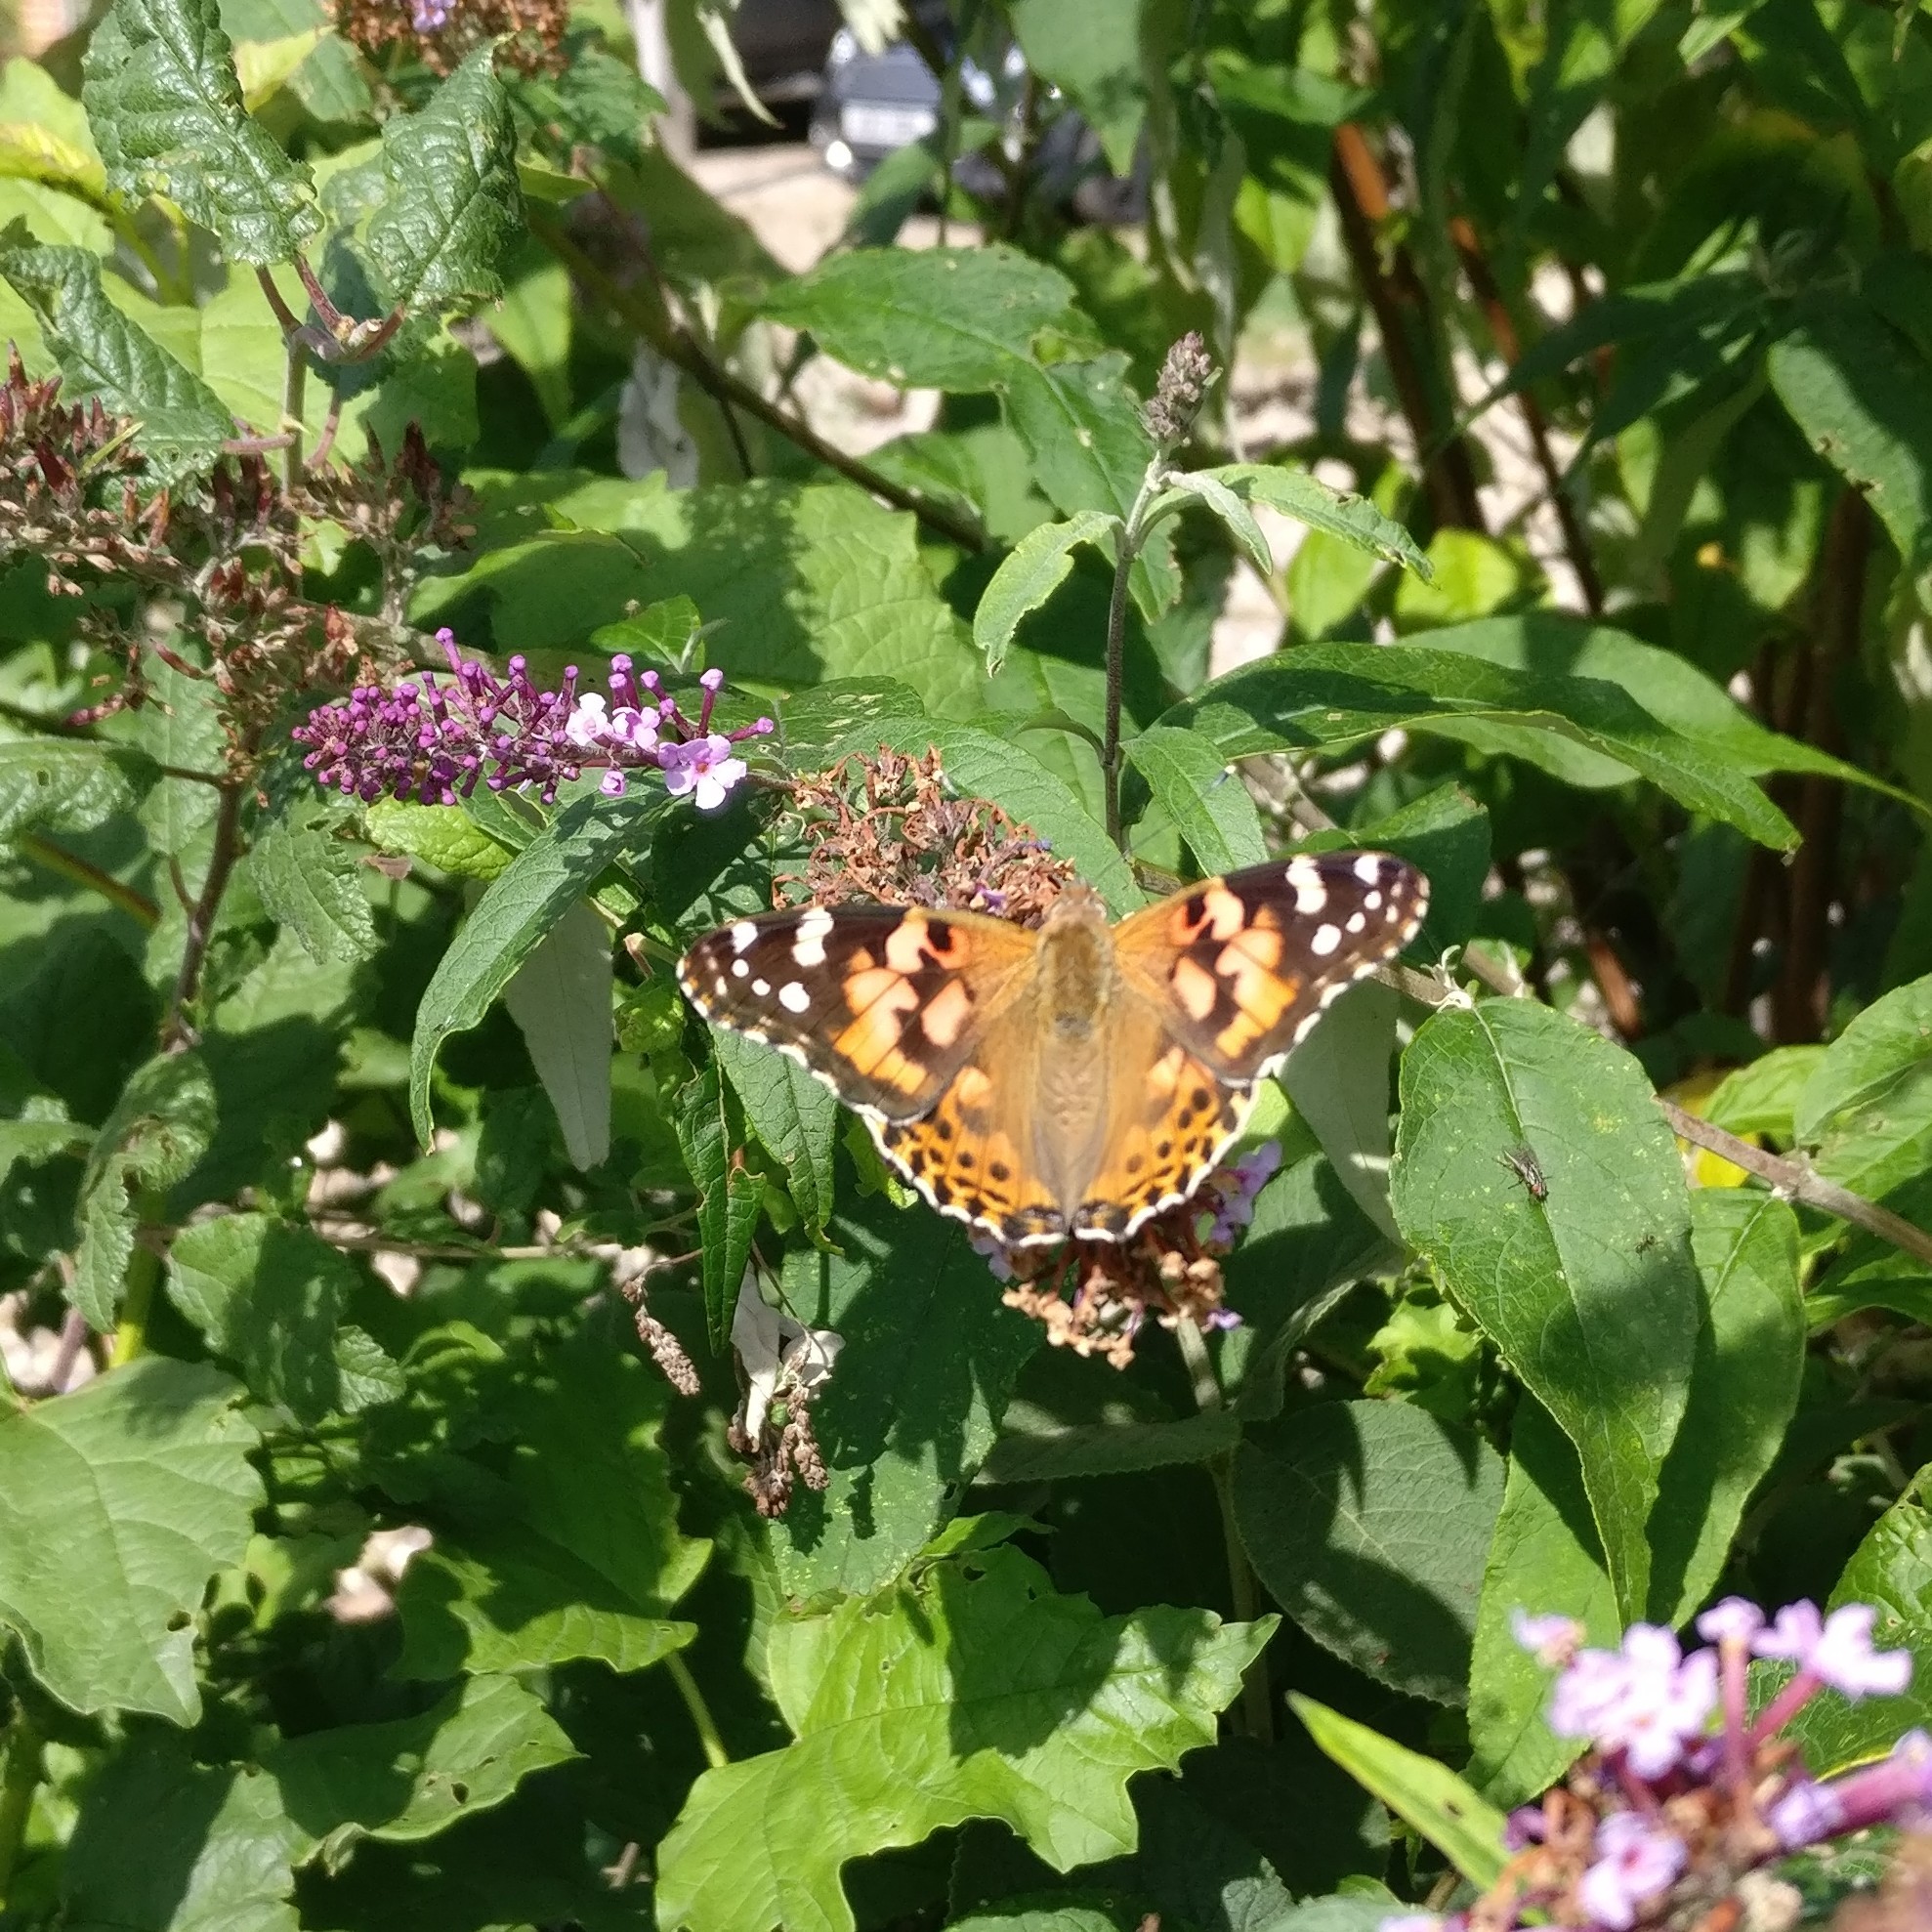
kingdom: Animalia
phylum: Arthropoda
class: Insecta
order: Lepidoptera
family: Nymphalidae
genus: Vanessa
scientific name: Vanessa cardui
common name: Painted lady
